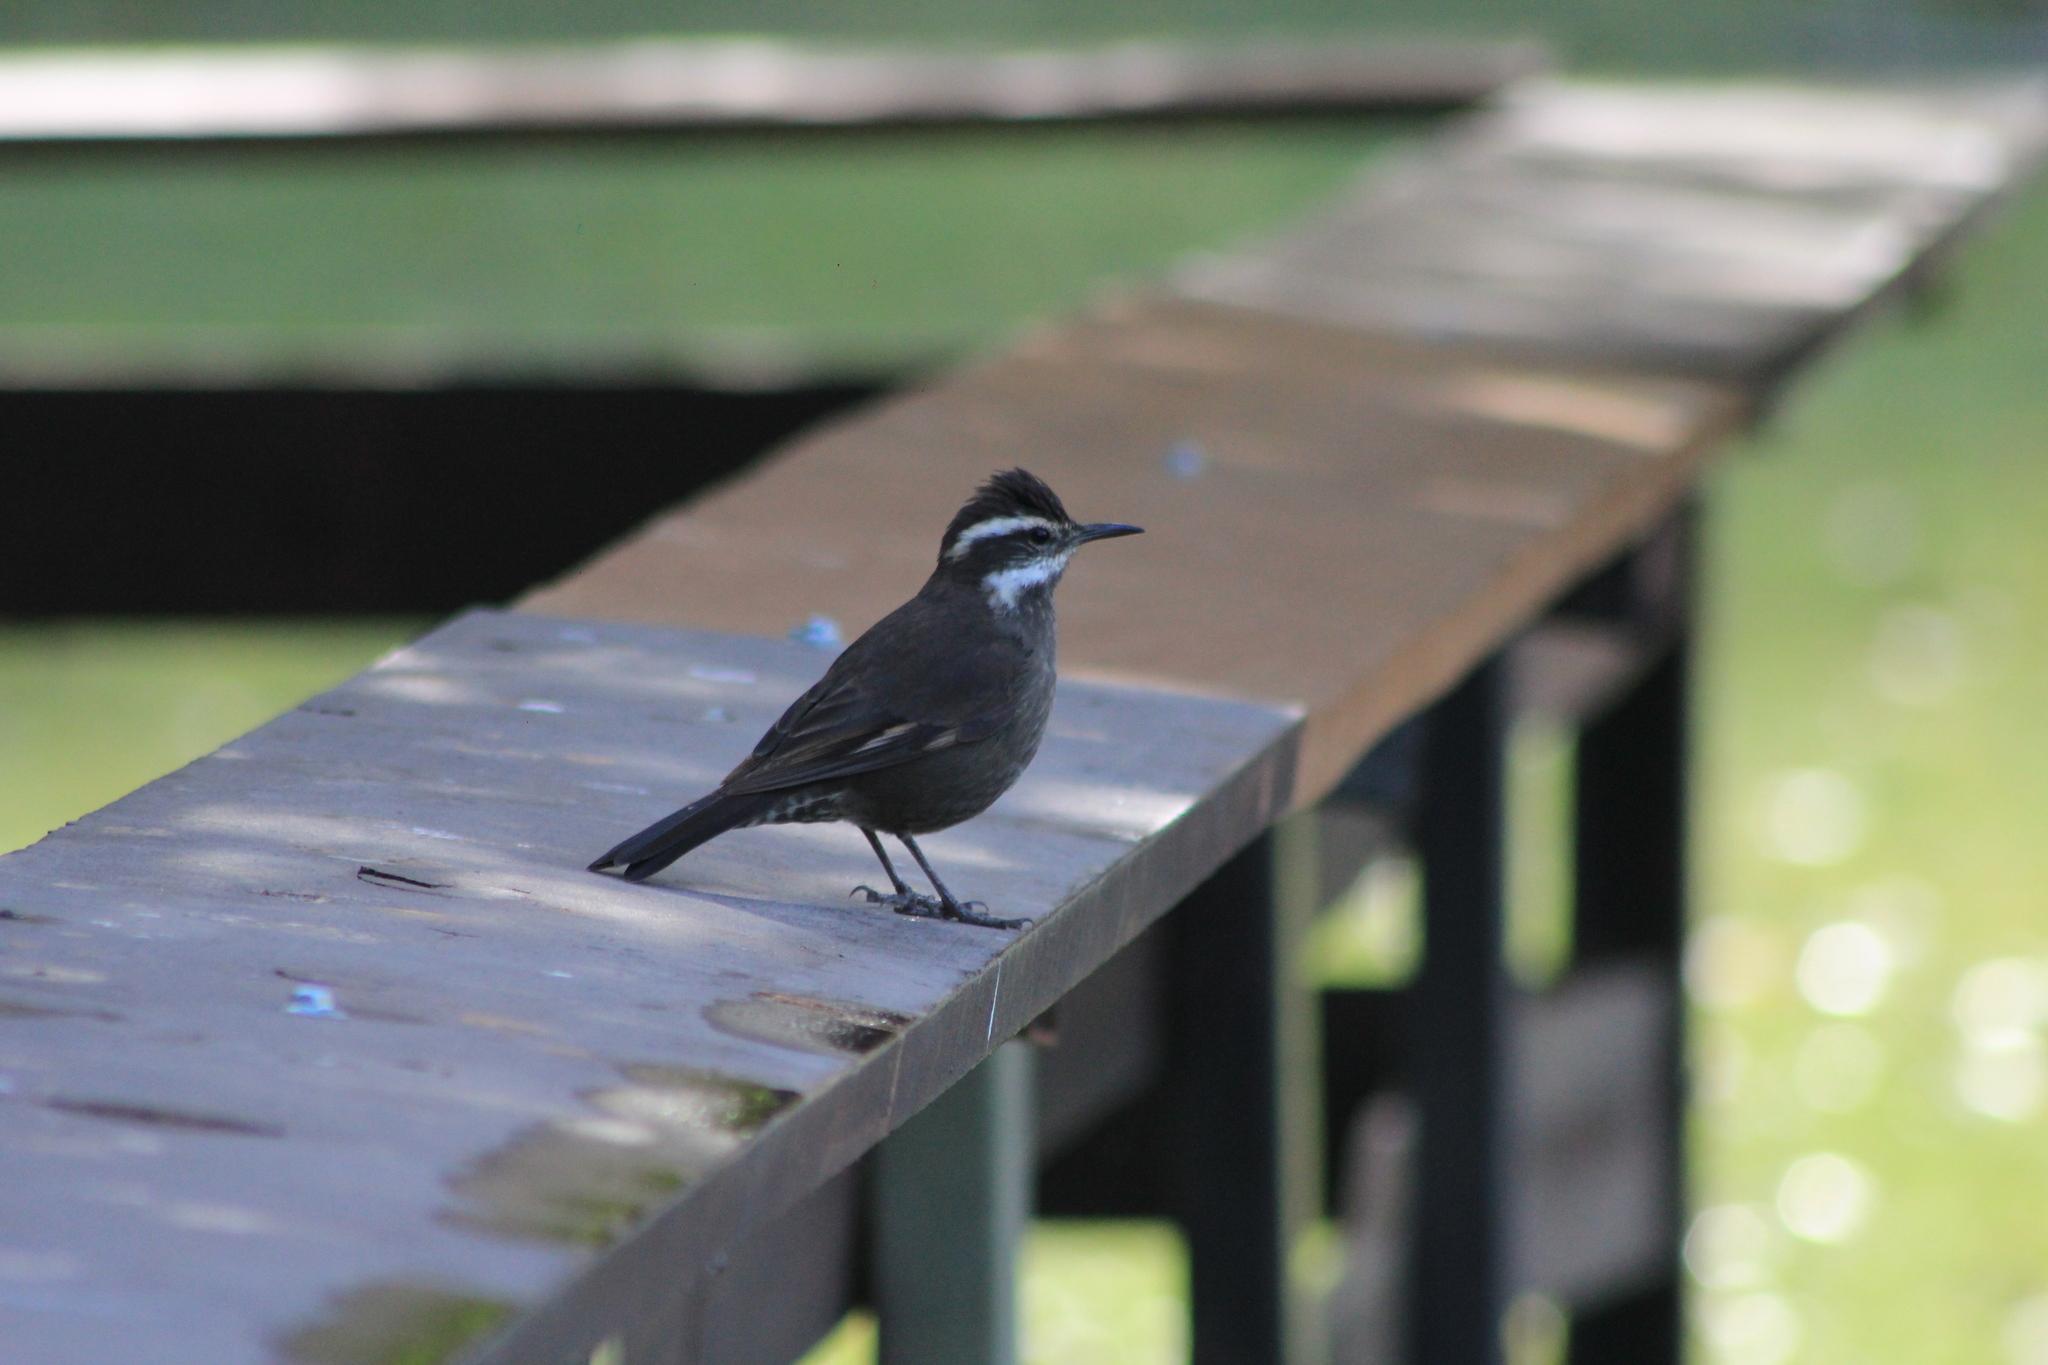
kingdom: Animalia
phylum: Chordata
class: Aves
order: Passeriformes
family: Furnariidae
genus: Cinclodes
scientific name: Cinclodes atacamensis
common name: White-winged cinclodes
